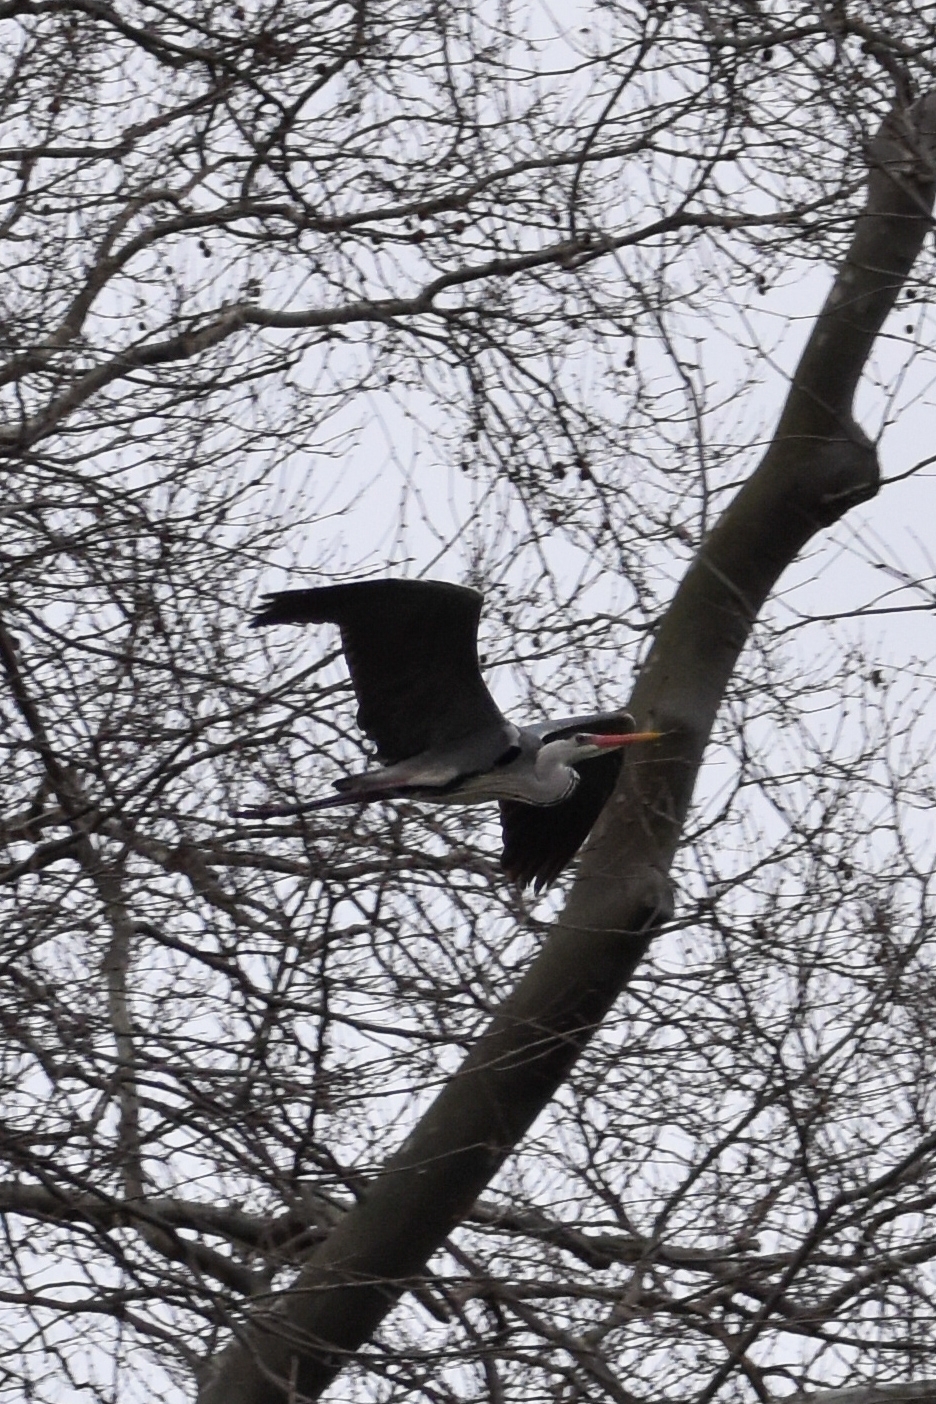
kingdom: Animalia
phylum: Chordata
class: Aves
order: Pelecaniformes
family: Ardeidae
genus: Ardea
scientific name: Ardea cinerea
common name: Grey heron
